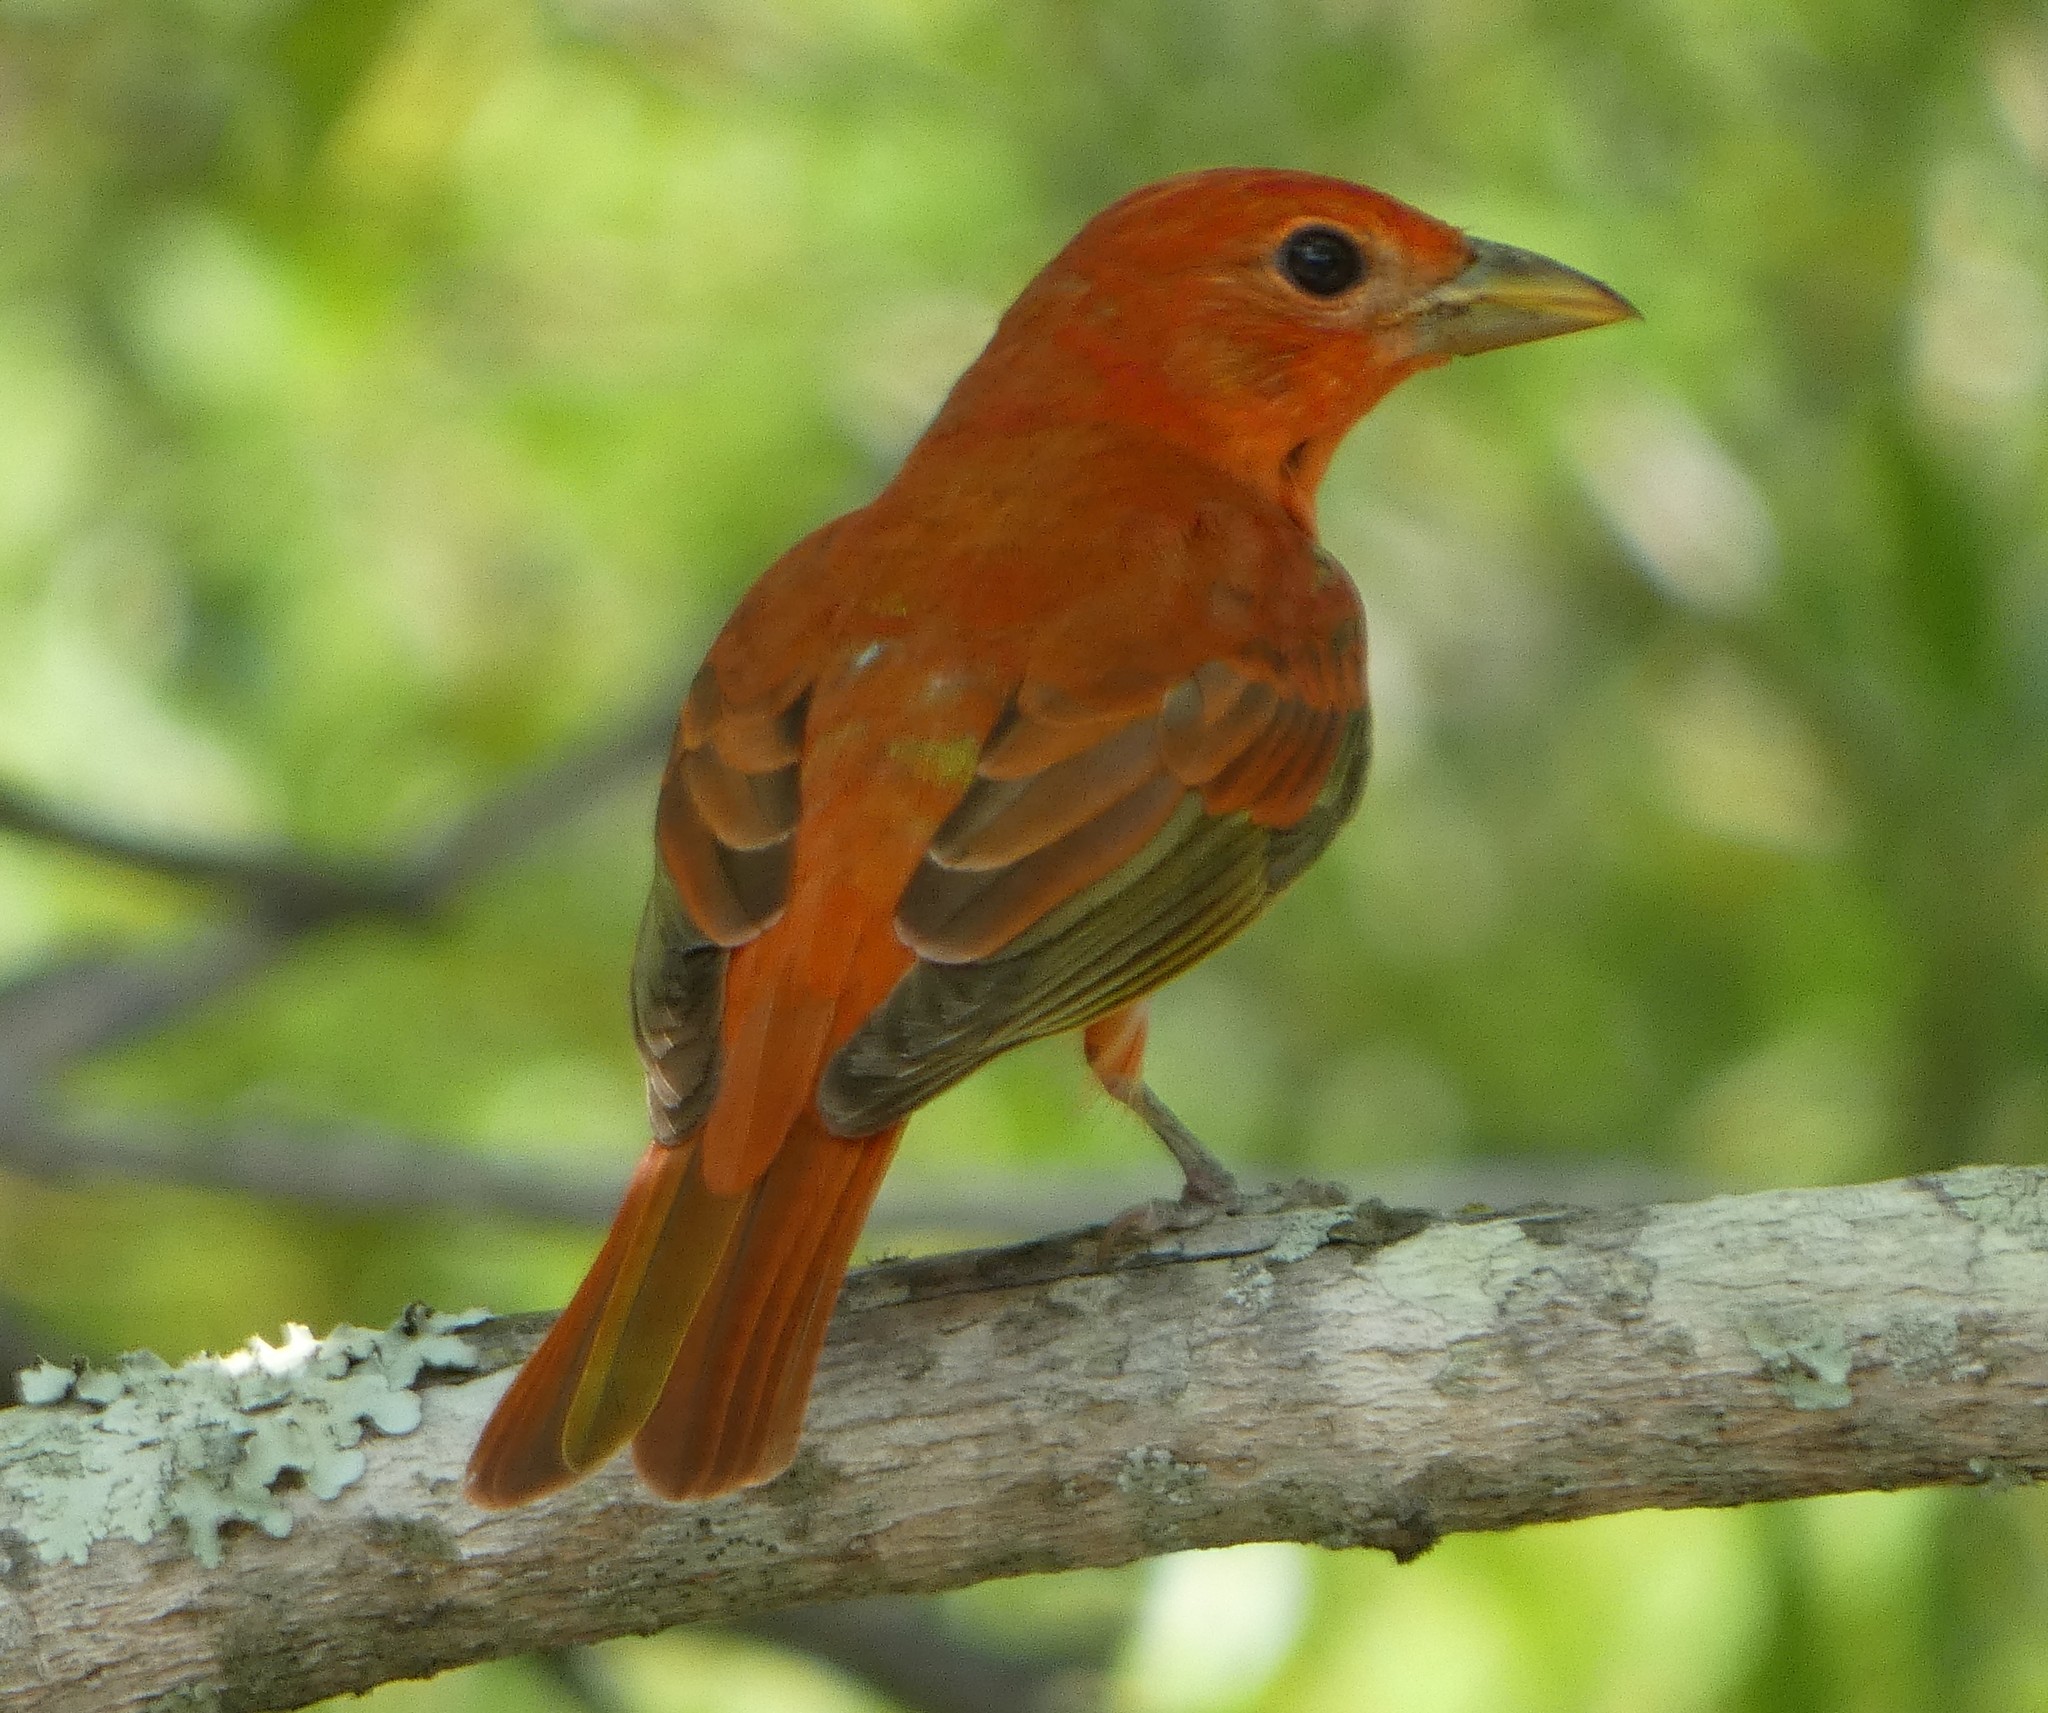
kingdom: Animalia
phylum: Chordata
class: Aves
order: Passeriformes
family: Cardinalidae
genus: Piranga
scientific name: Piranga rubra
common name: Summer tanager
